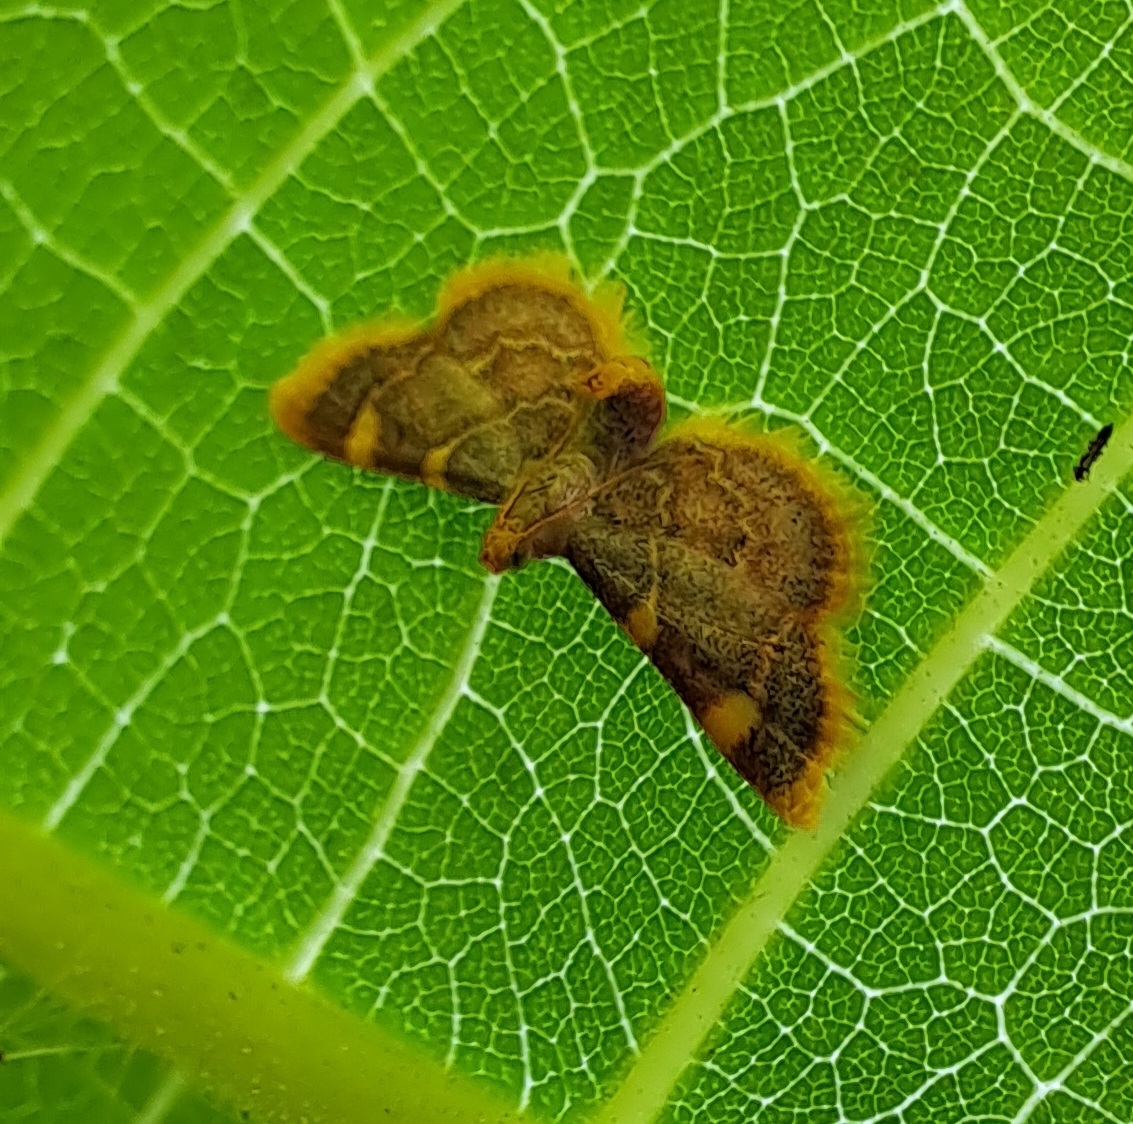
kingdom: Animalia
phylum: Arthropoda
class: Insecta
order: Lepidoptera
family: Pyralidae
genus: Hypsopygia
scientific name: Hypsopygia costalis
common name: Gold triangle
